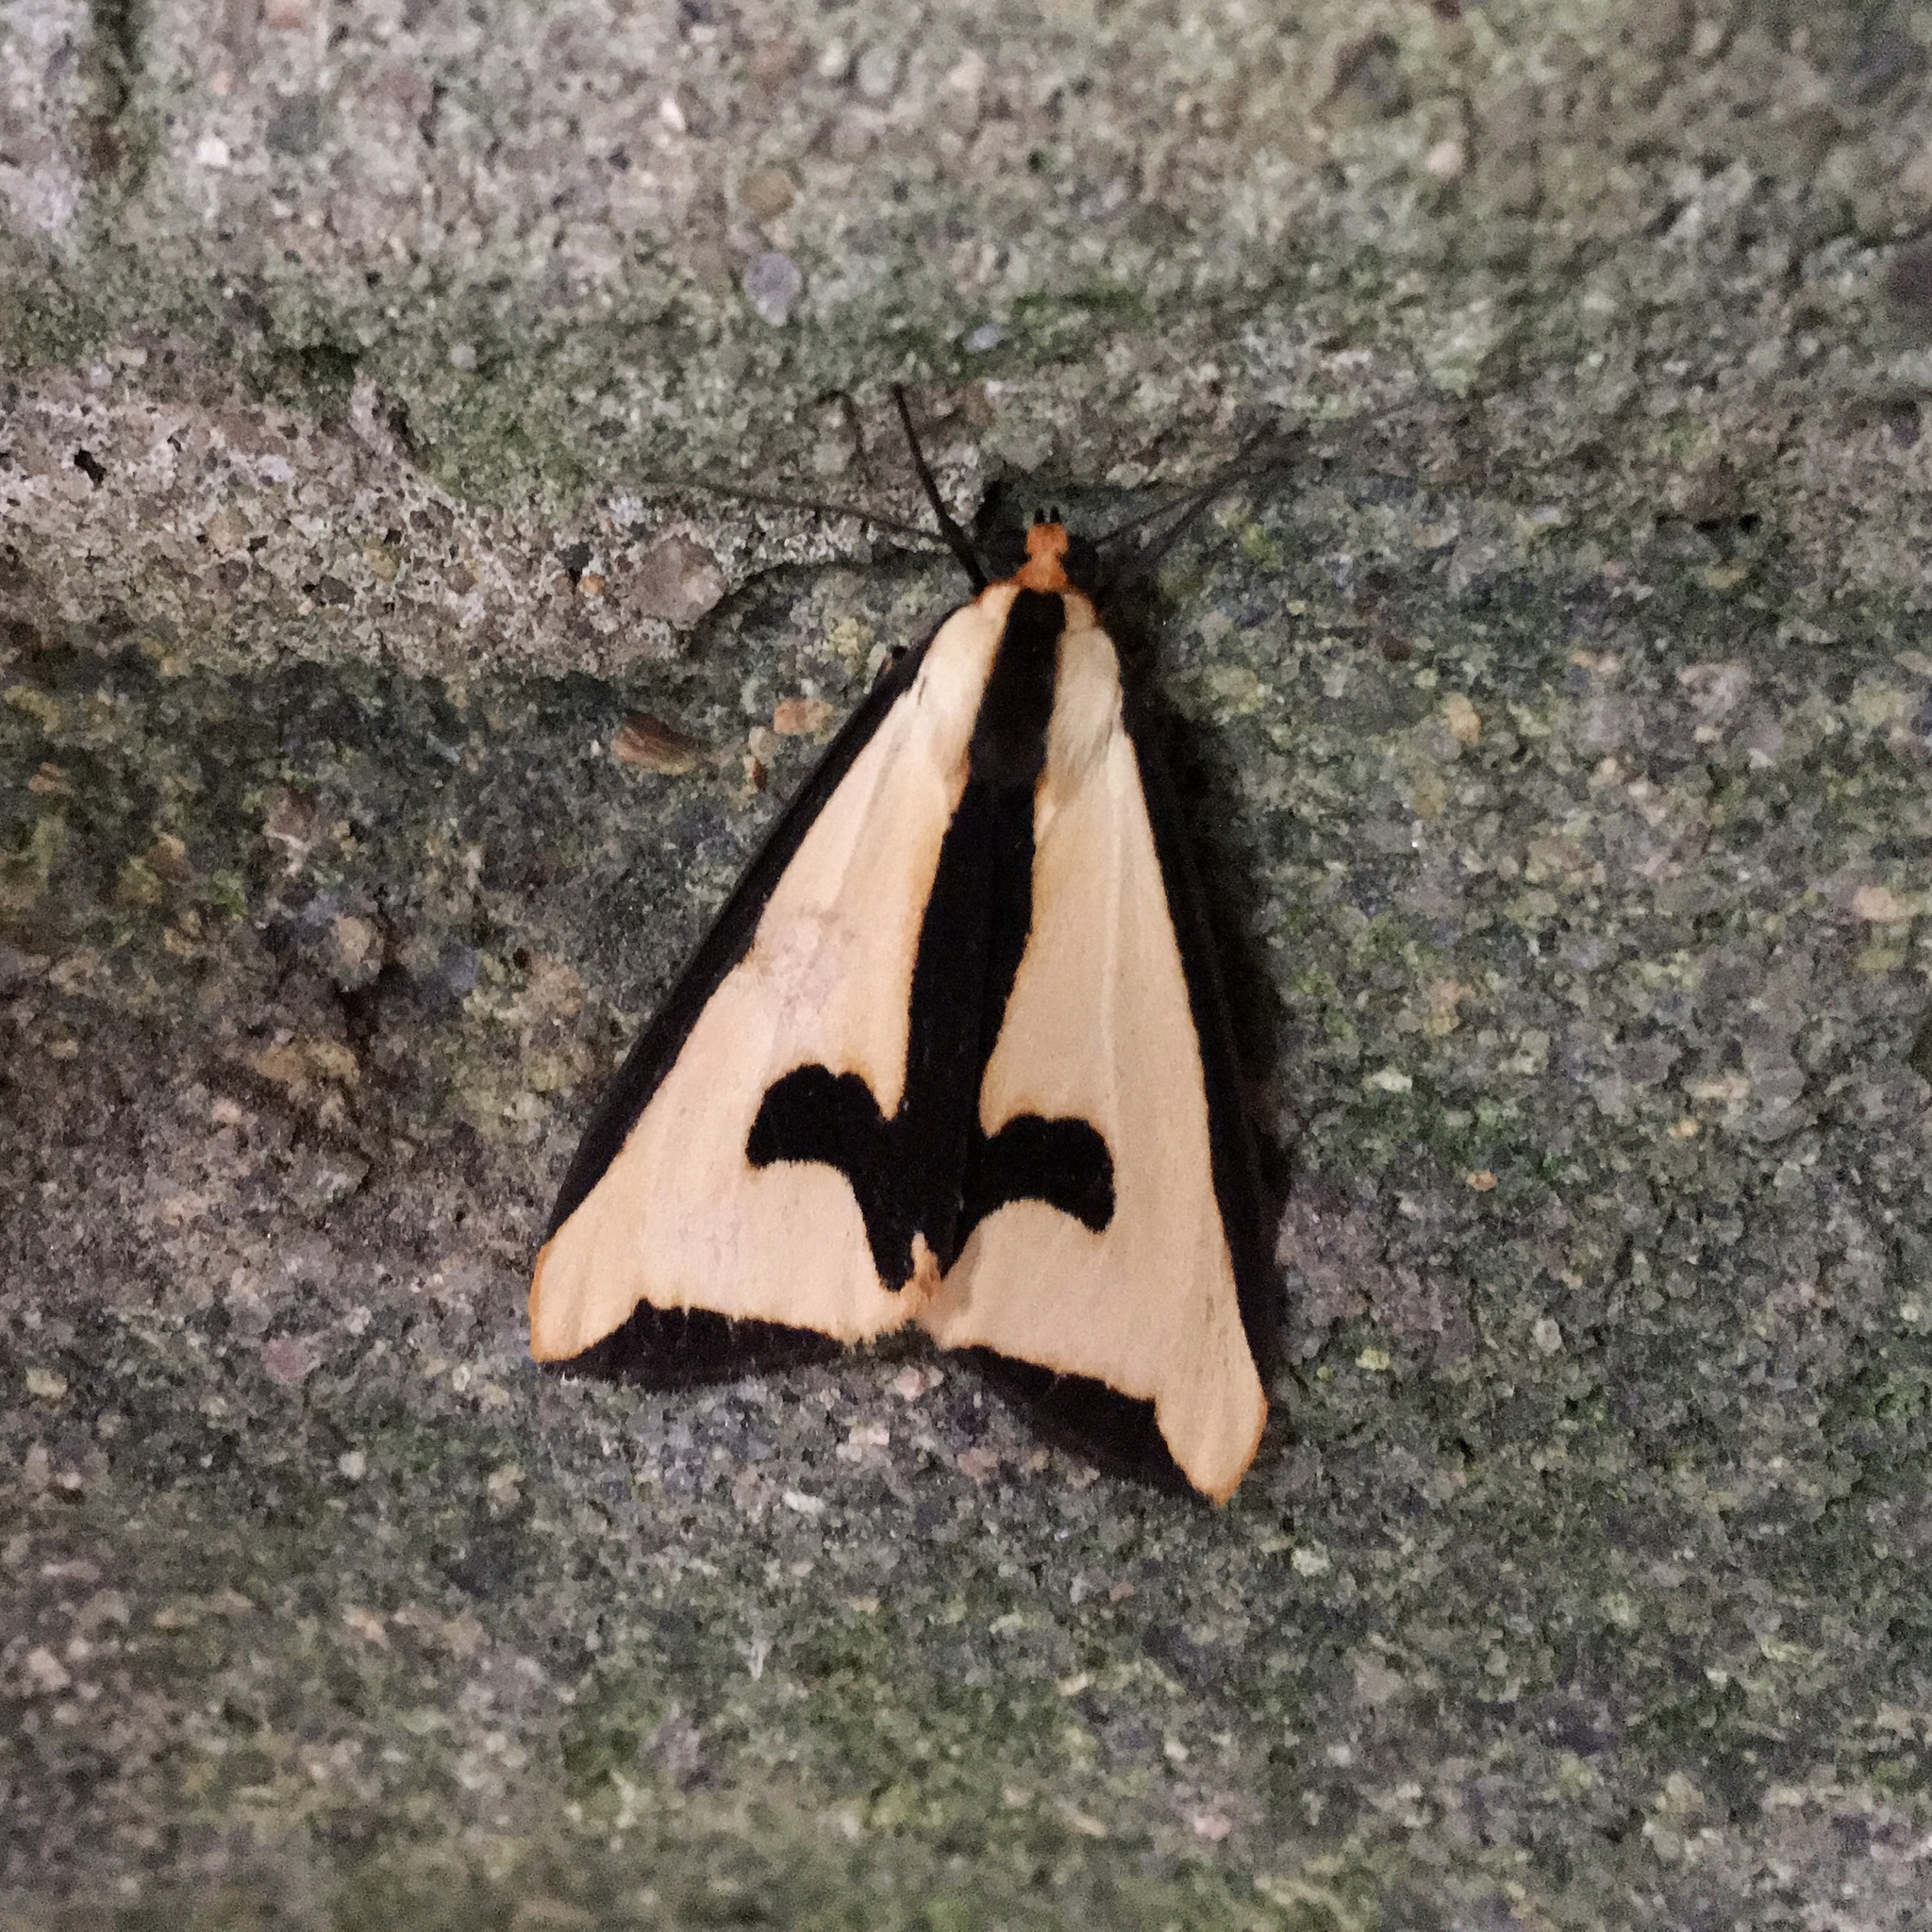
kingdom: Animalia
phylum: Arthropoda
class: Insecta
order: Lepidoptera
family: Erebidae
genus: Haploa
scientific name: Haploa clymene
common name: Clymene moth
